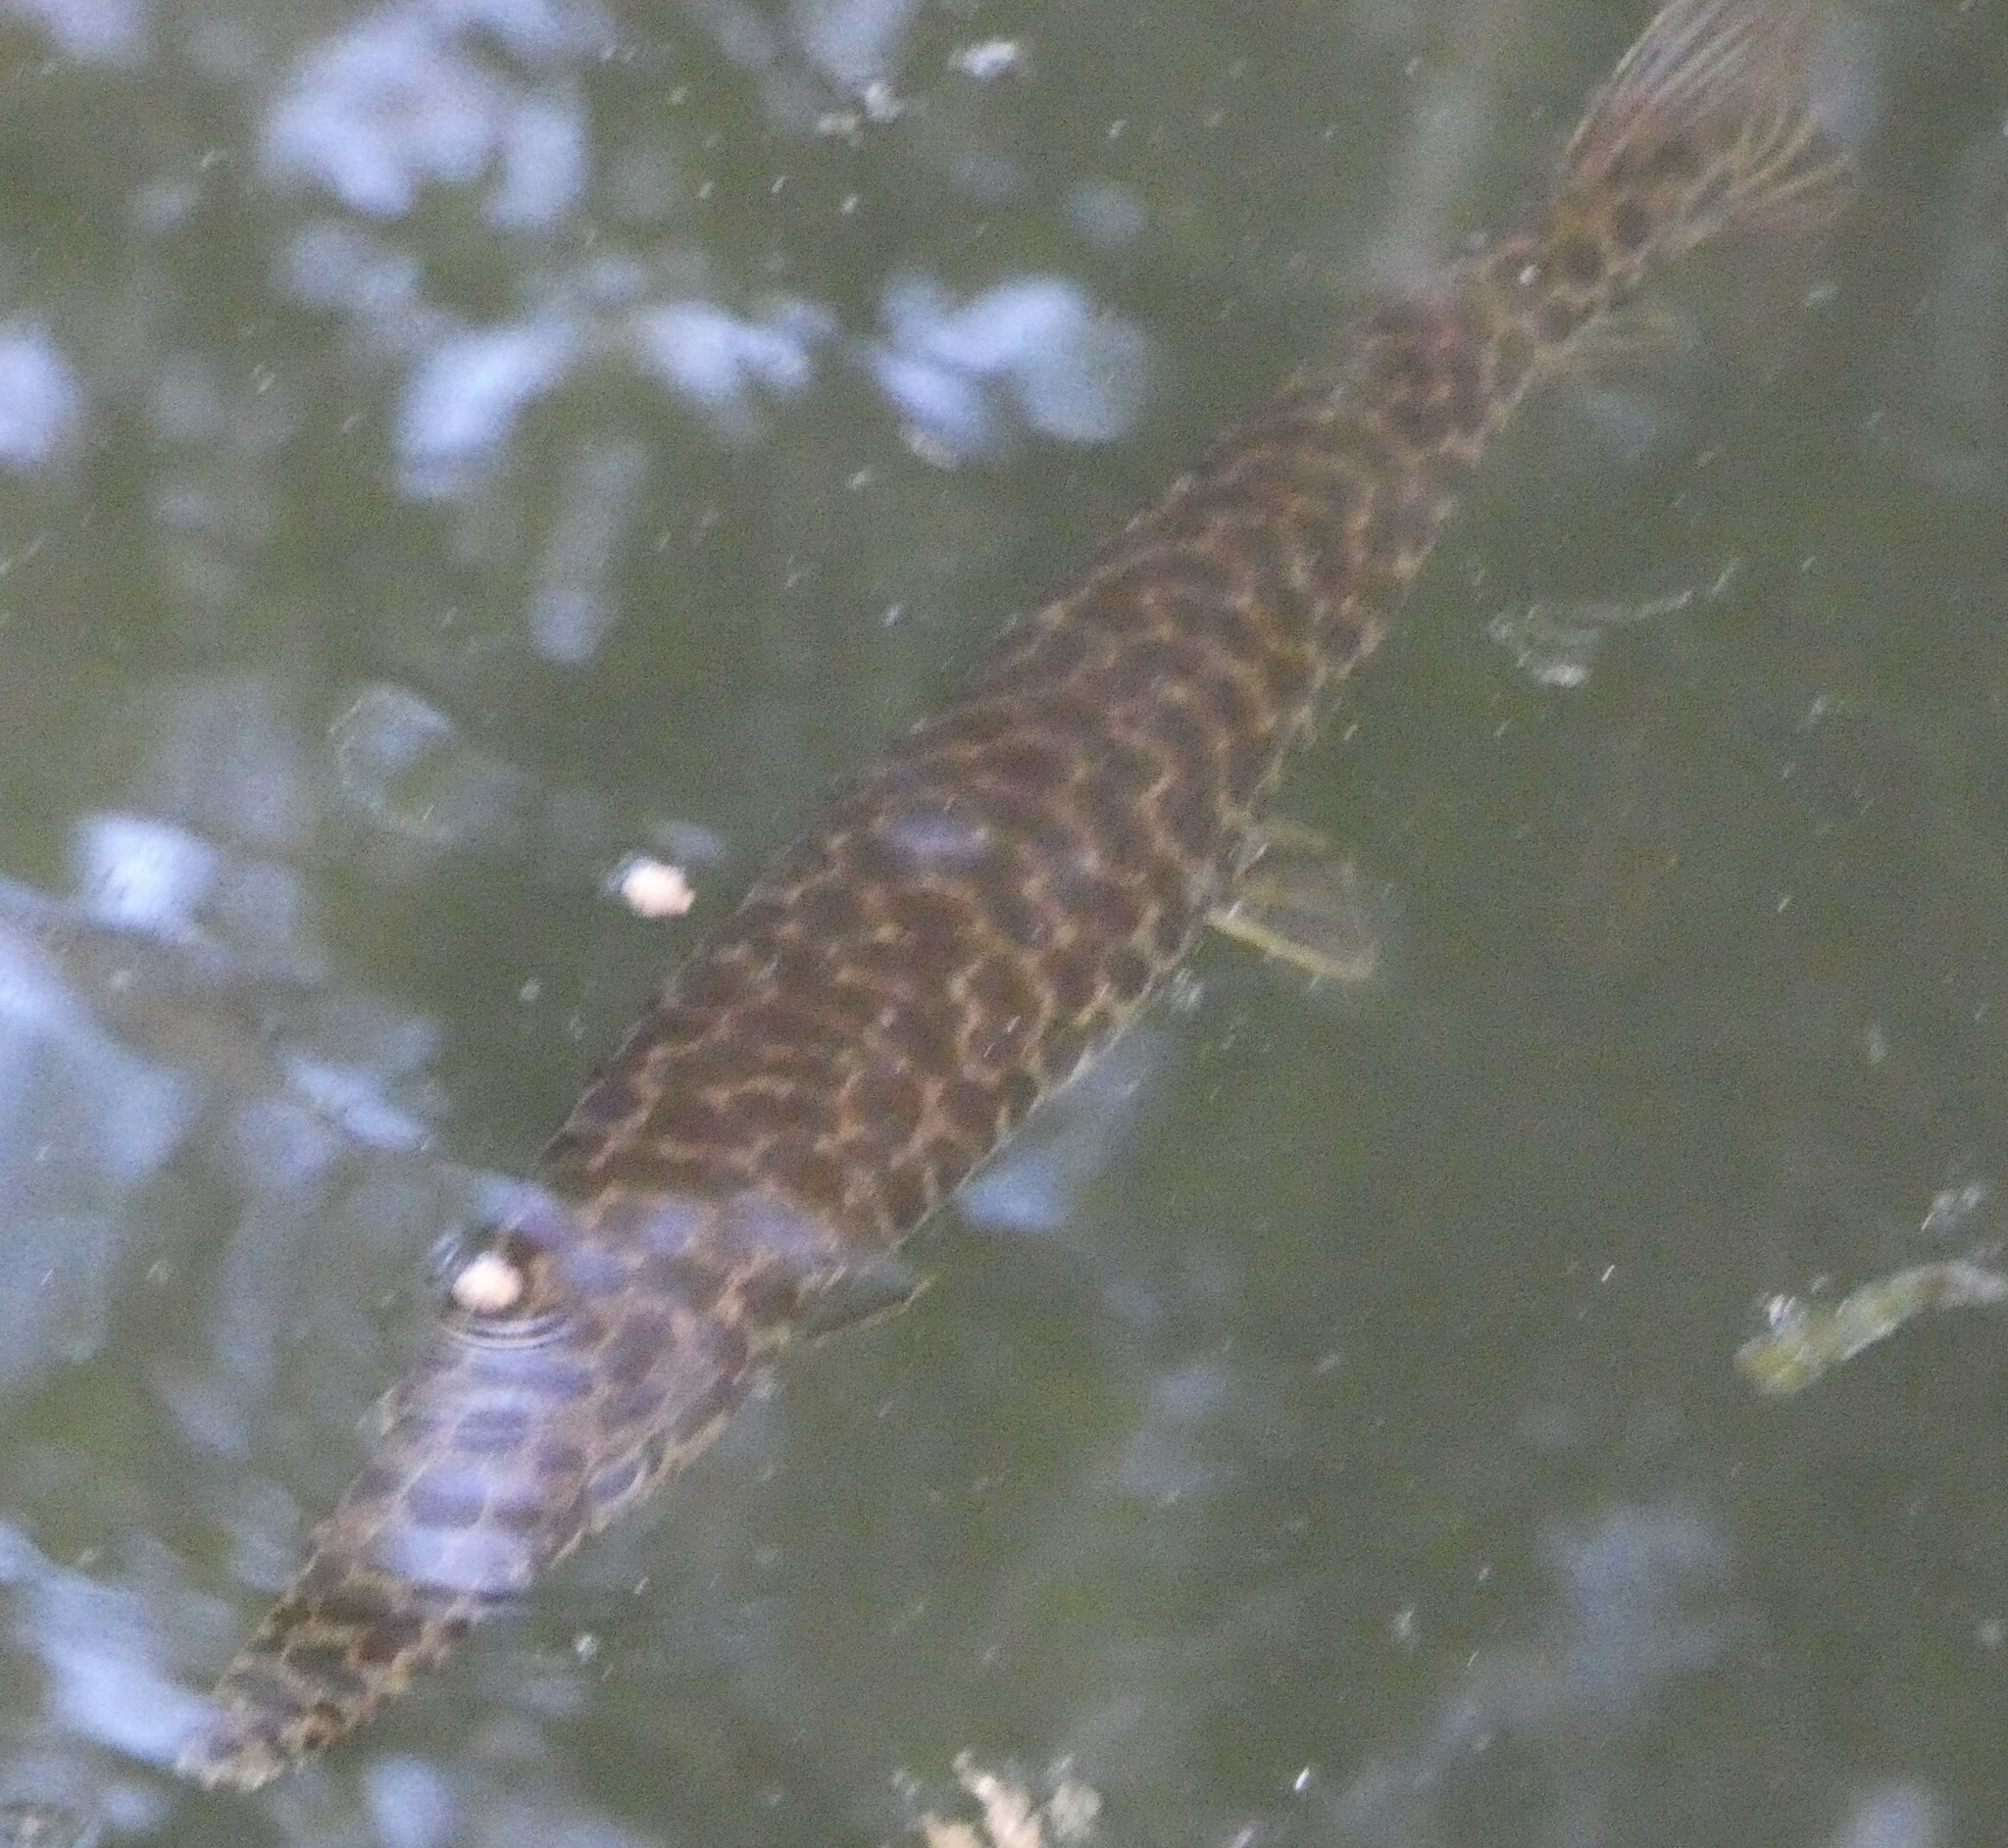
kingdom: Animalia
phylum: Chordata
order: Lepisosteiformes
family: Lepisosteidae
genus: Lepisosteus
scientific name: Lepisosteus platyrhincus
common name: Florida gar
